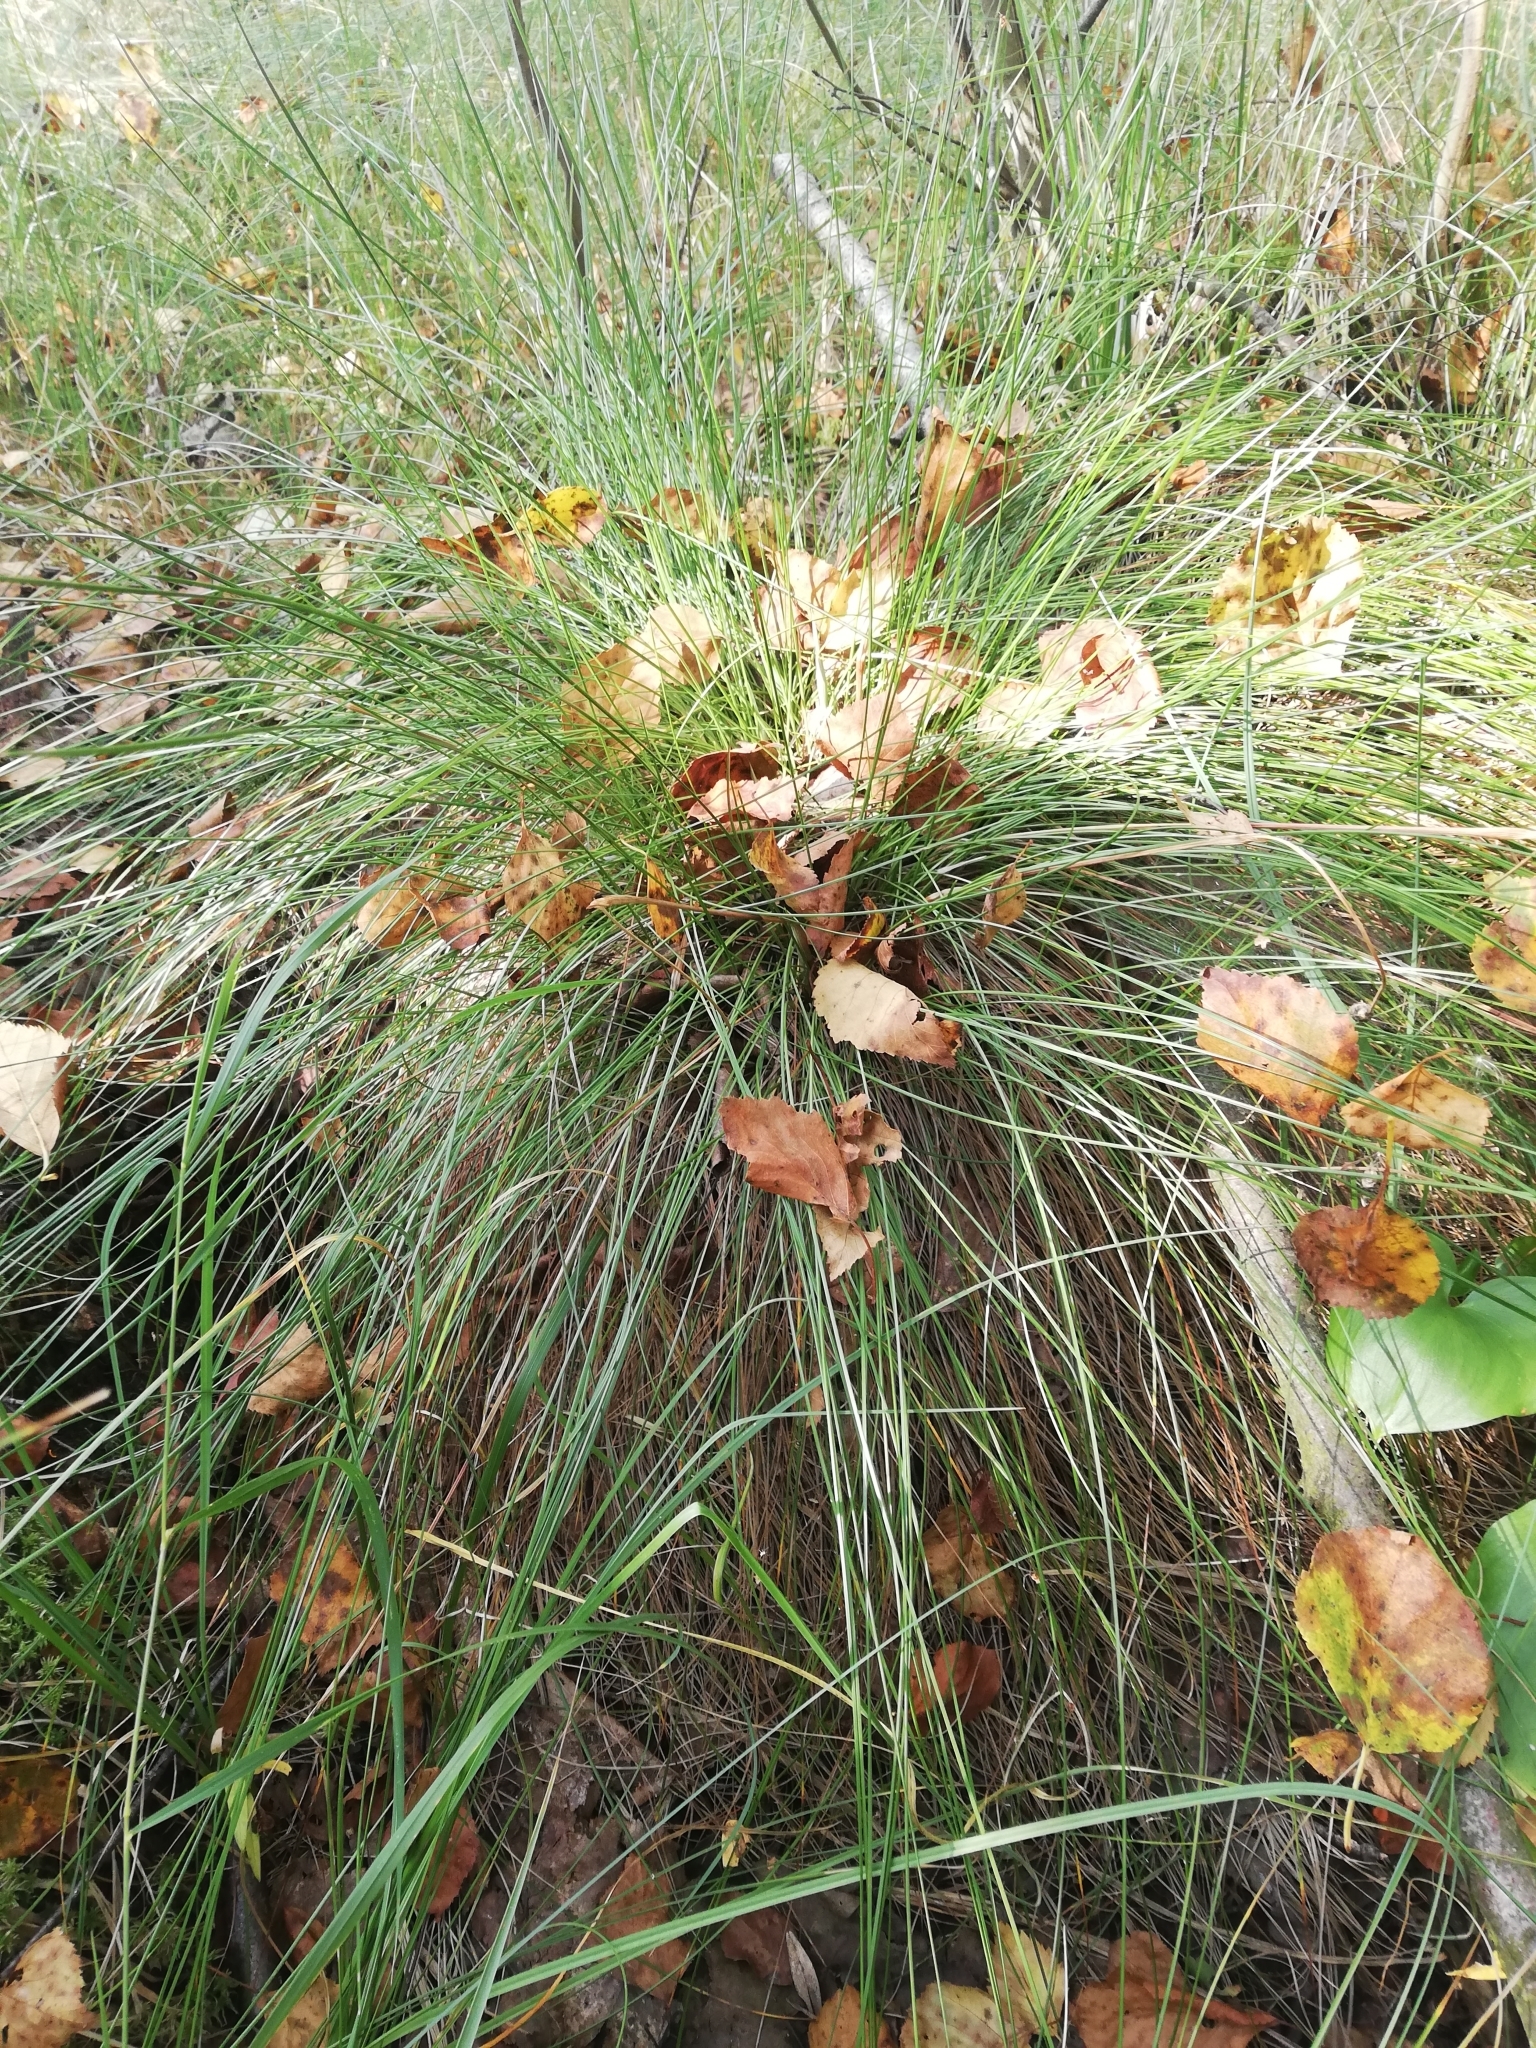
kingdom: Plantae
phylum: Tracheophyta
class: Liliopsida
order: Poales
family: Cyperaceae
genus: Eriophorum
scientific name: Eriophorum vaginatum
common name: Hare's-tail cottongrass
